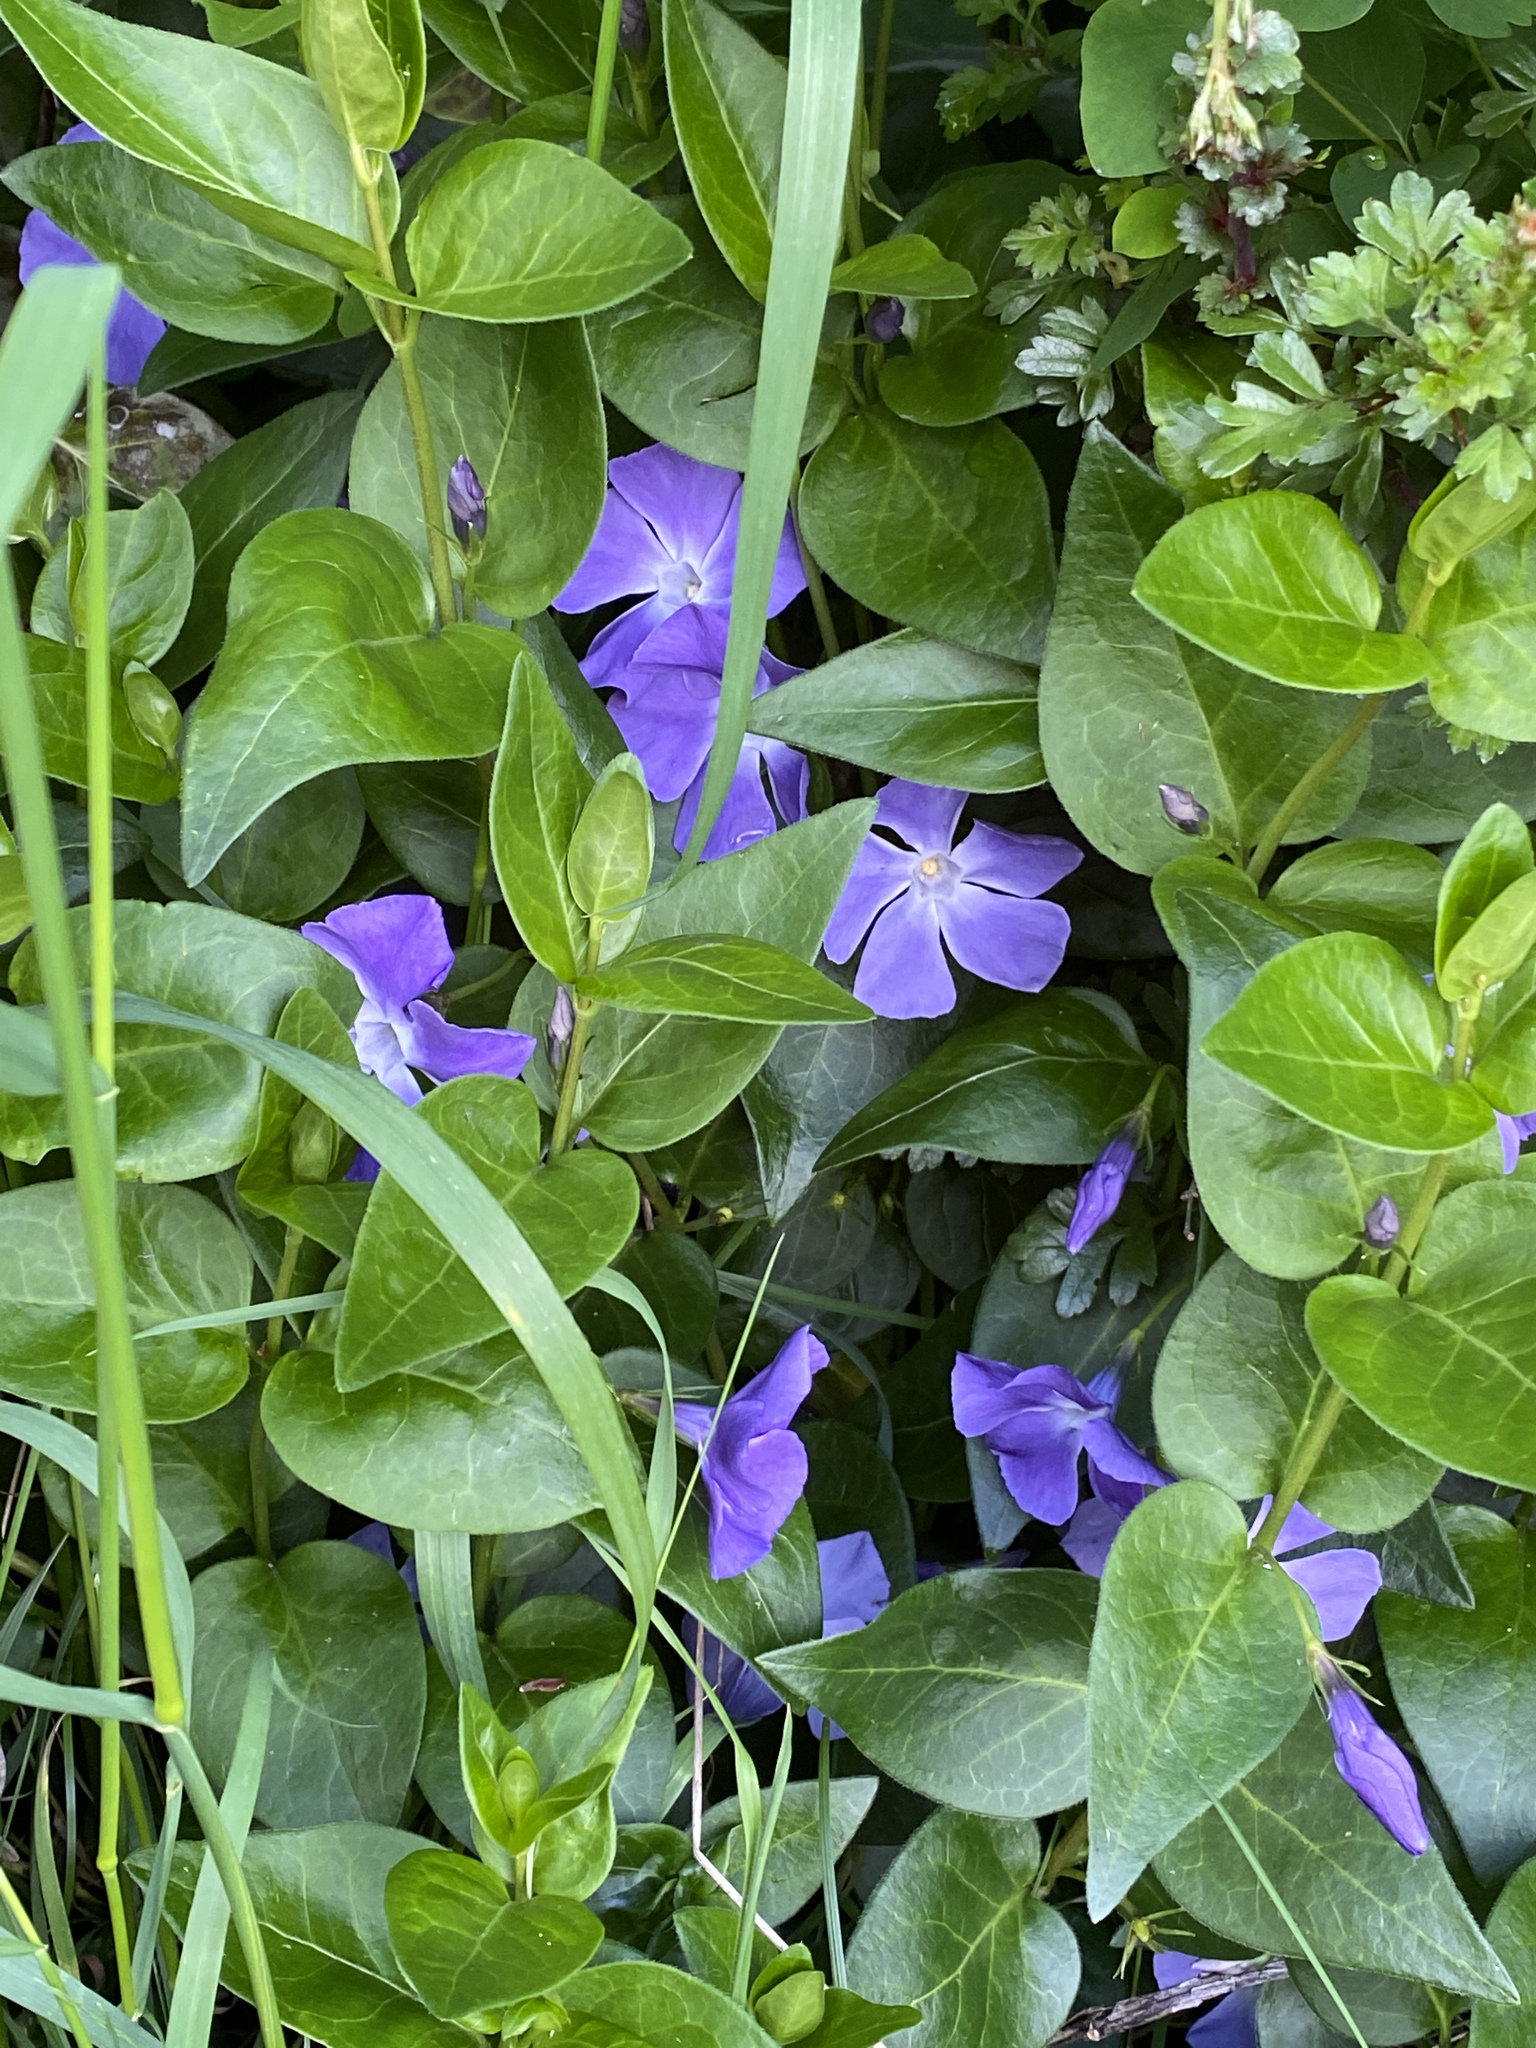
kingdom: Plantae
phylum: Tracheophyta
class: Magnoliopsida
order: Gentianales
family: Apocynaceae
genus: Vinca
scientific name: Vinca major
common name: Greater periwinkle
